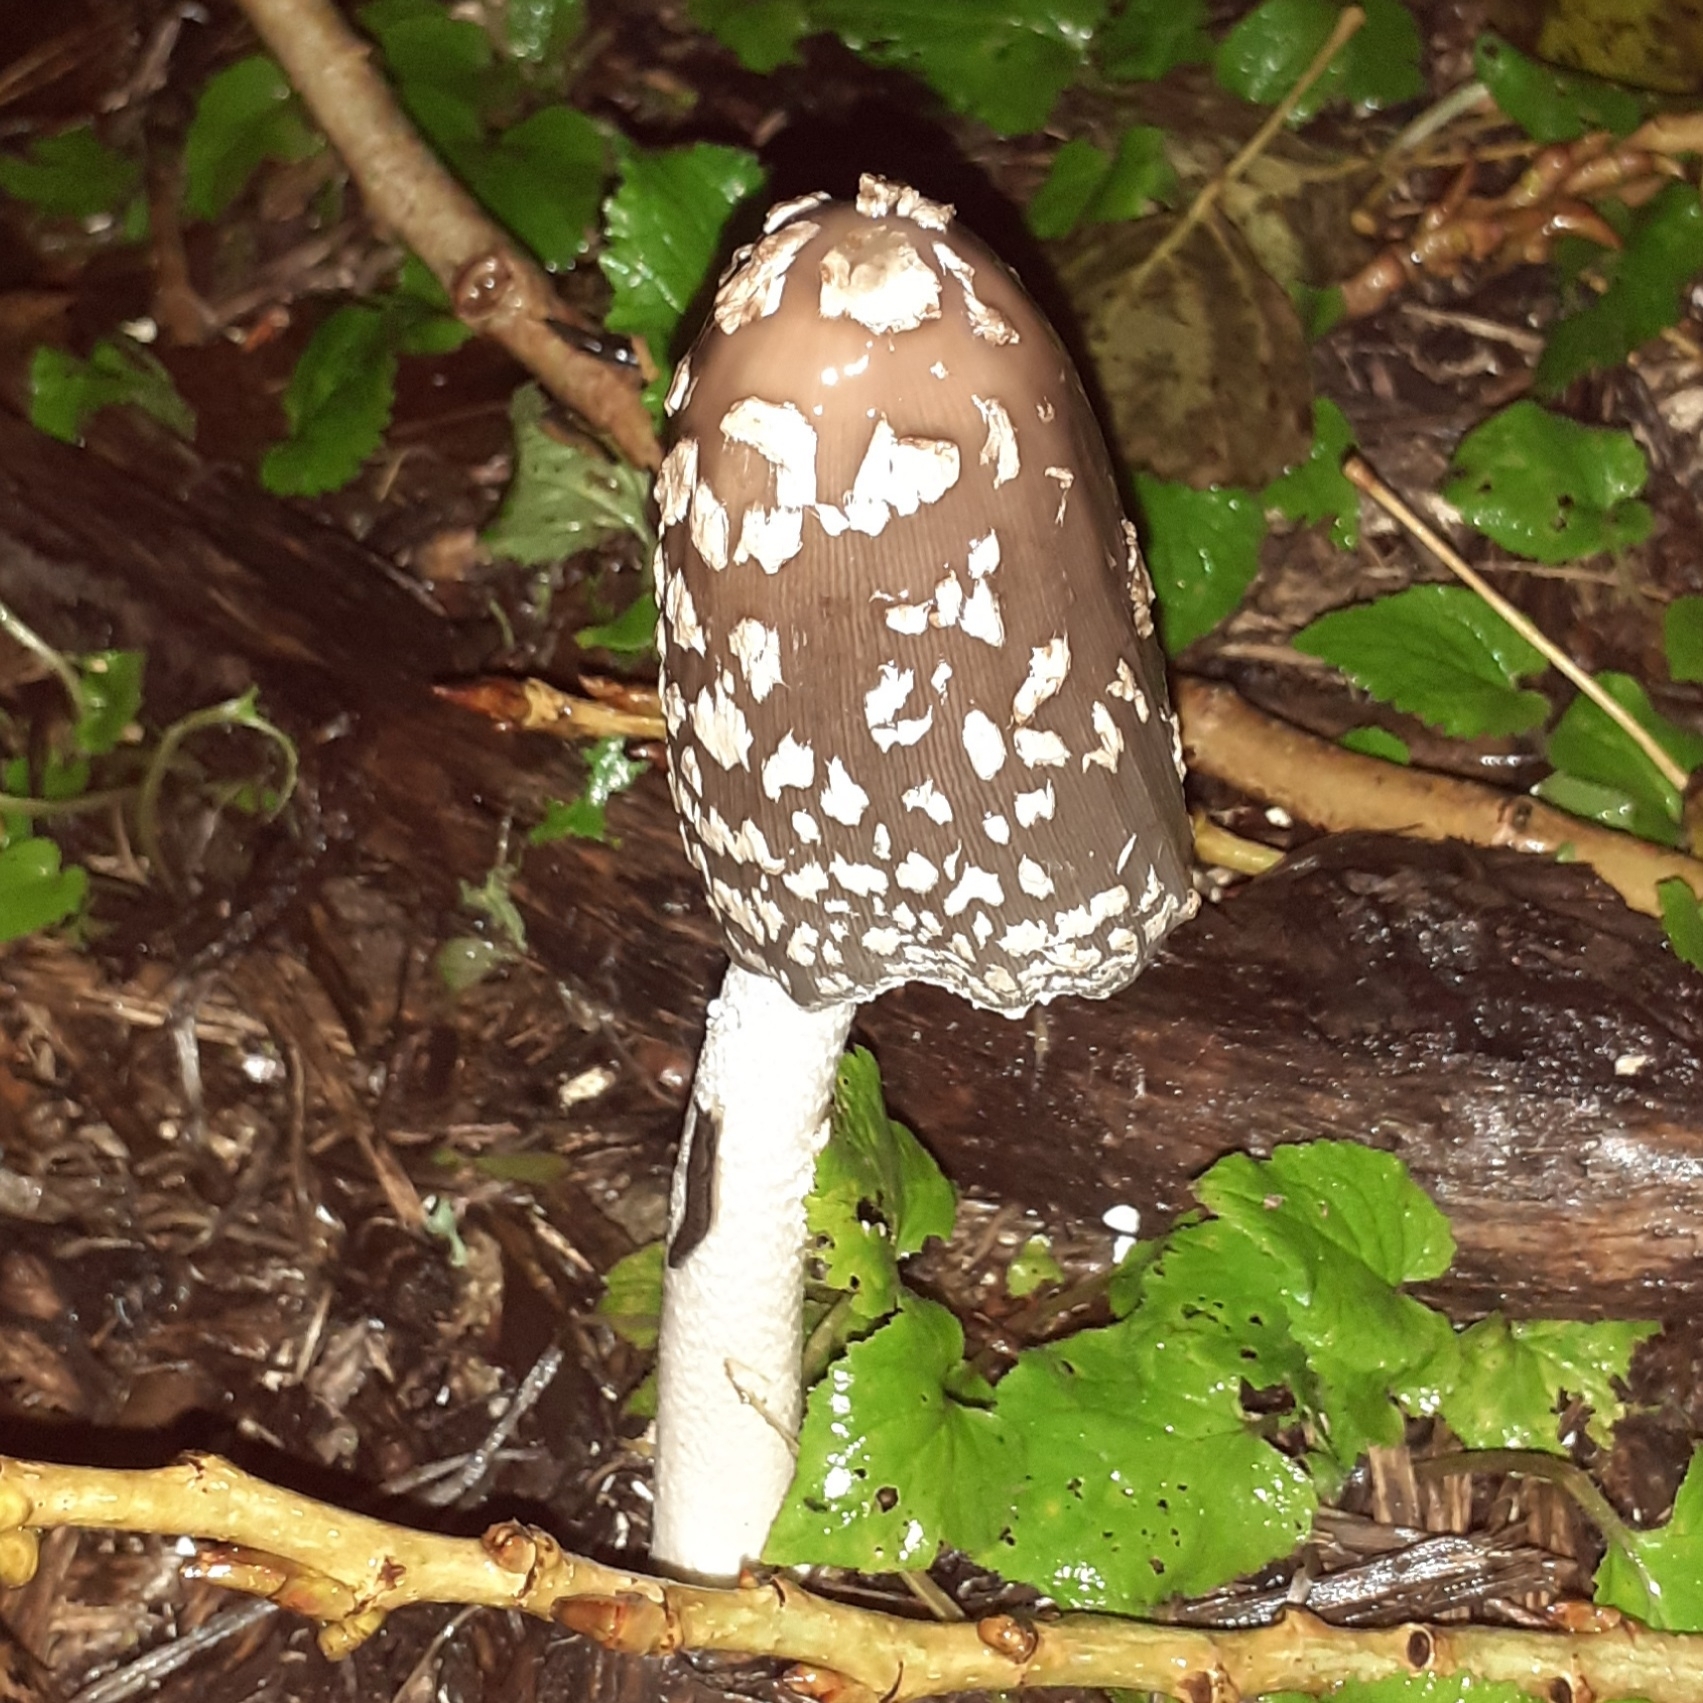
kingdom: Fungi
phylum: Basidiomycota
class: Agaricomycetes
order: Agaricales
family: Psathyrellaceae
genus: Coprinopsis
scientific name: Coprinopsis picacea
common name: Magpie inkcap
